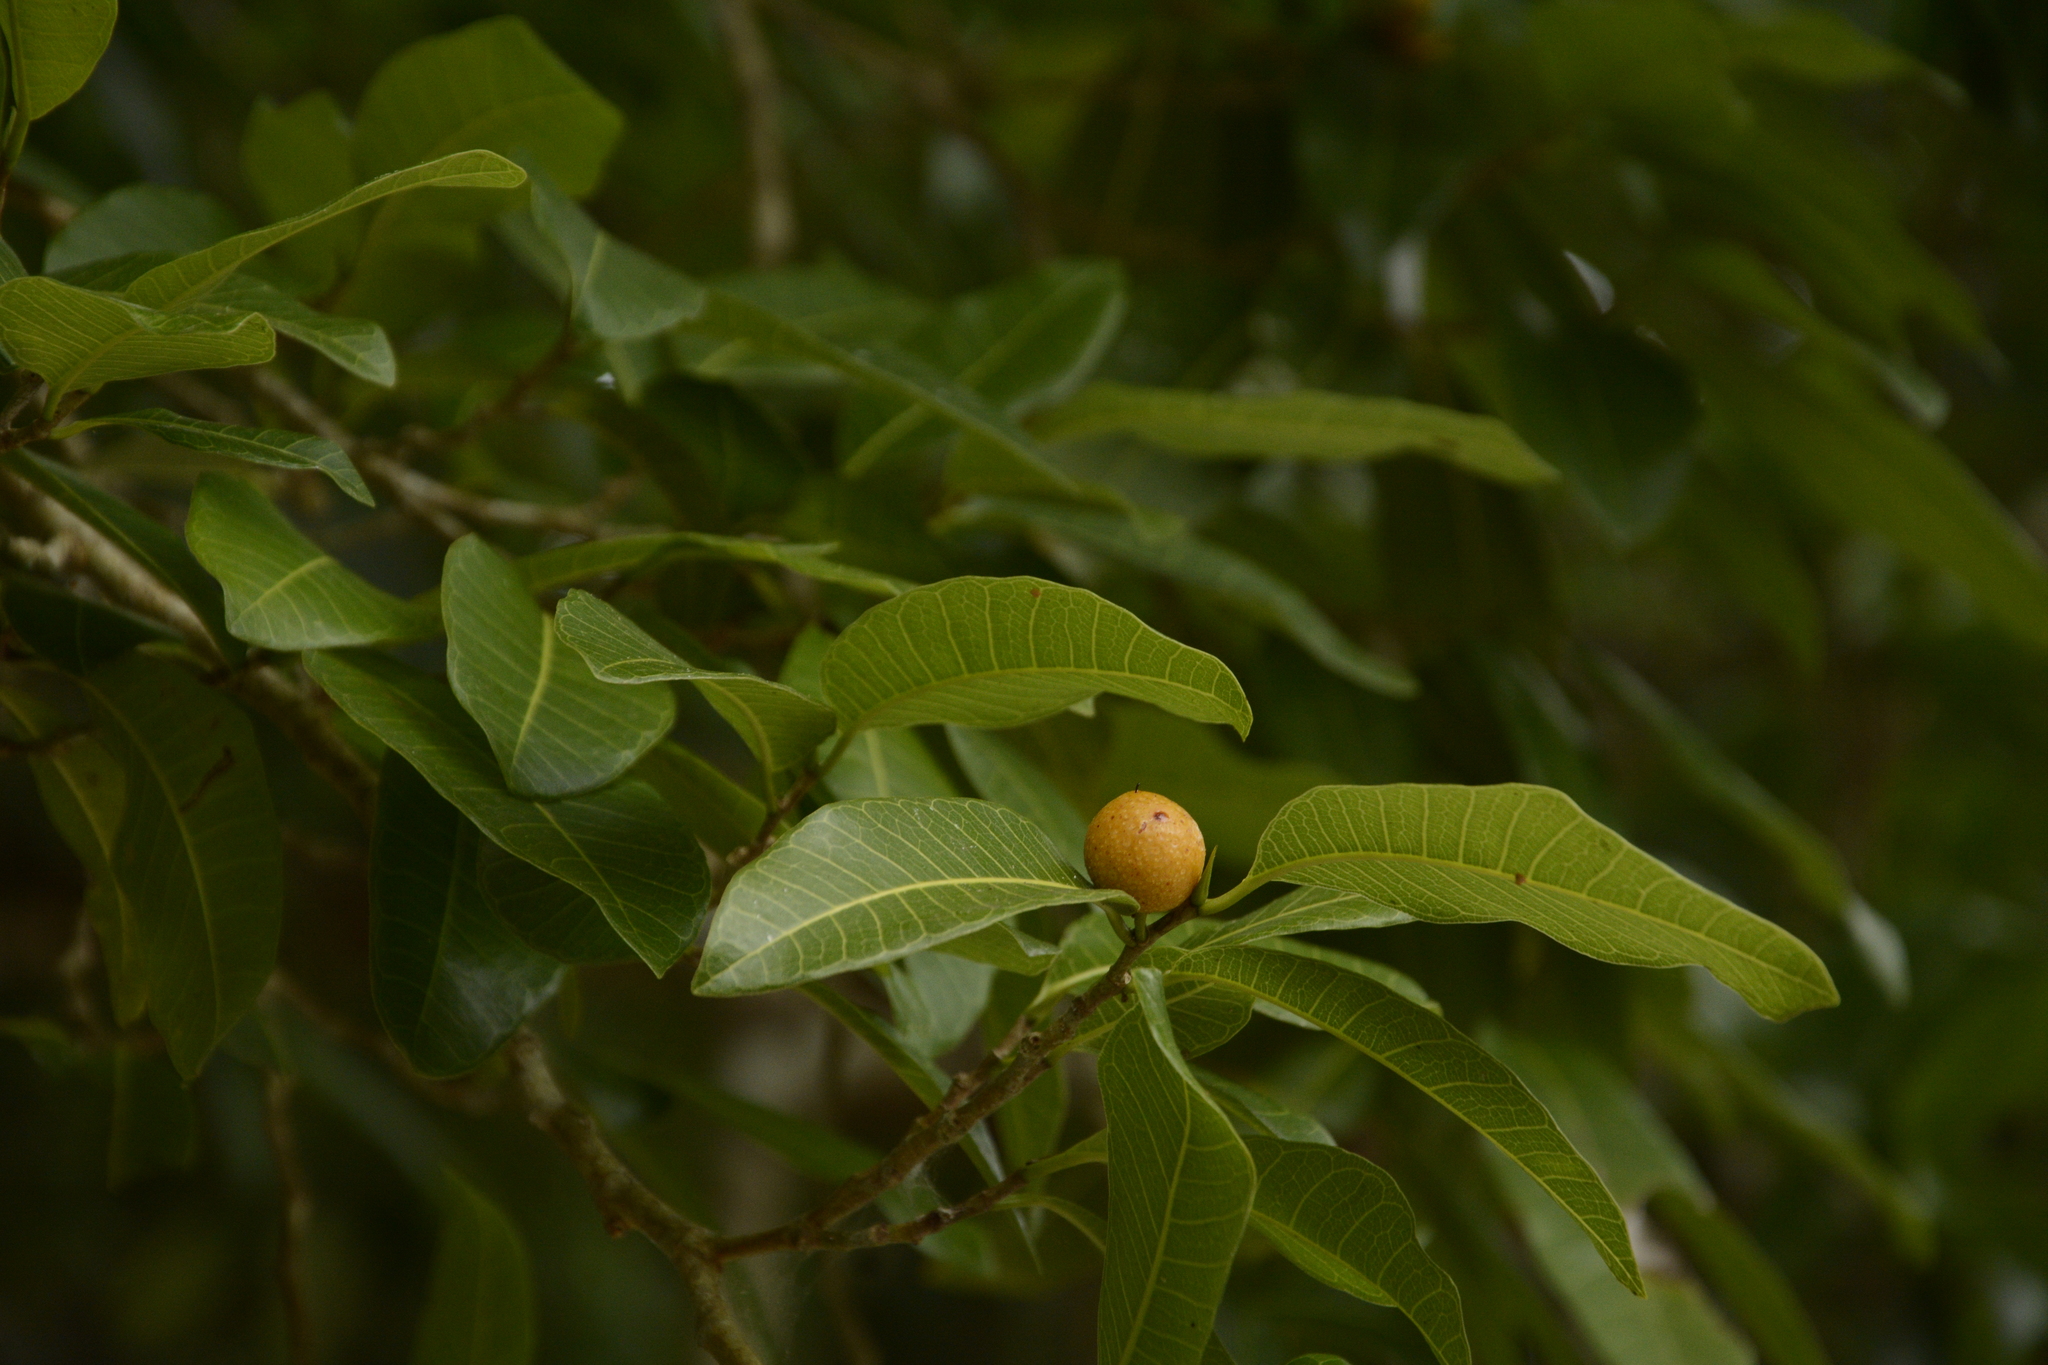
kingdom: Plantae
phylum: Tracheophyta
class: Magnoliopsida
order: Rosales
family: Moraceae
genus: Brosimum
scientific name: Brosimum alicastrum
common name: Breadnut
